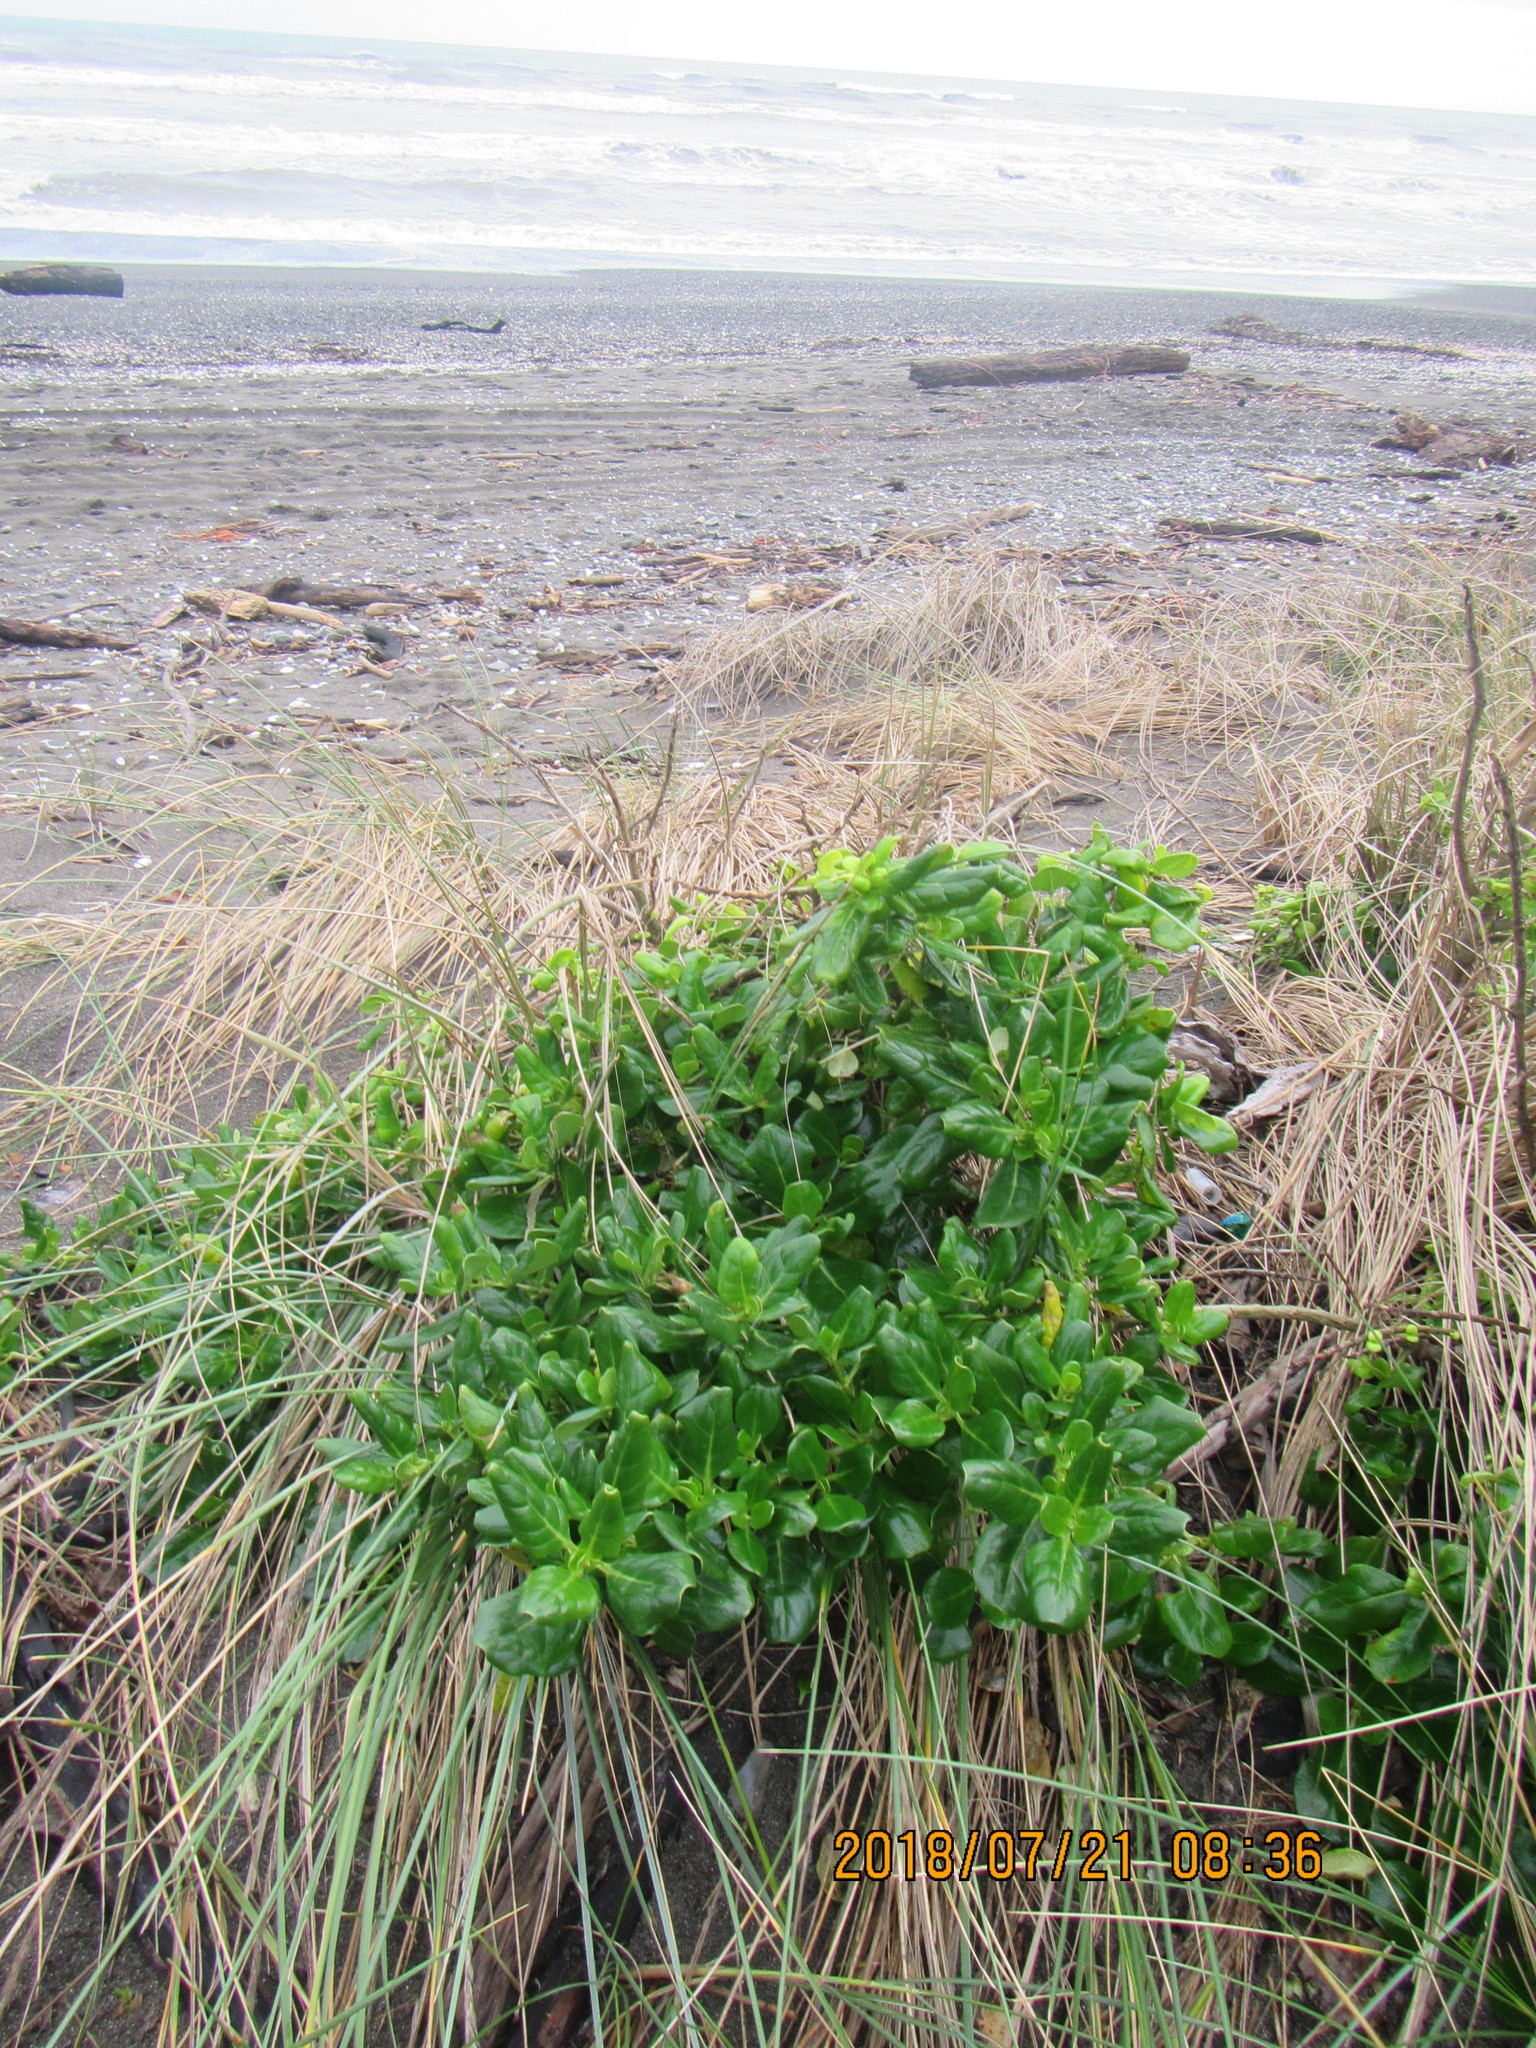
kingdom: Plantae
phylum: Tracheophyta
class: Magnoliopsida
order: Gentianales
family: Rubiaceae
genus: Coprosma
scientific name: Coprosma repens
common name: Tree bedstraw
